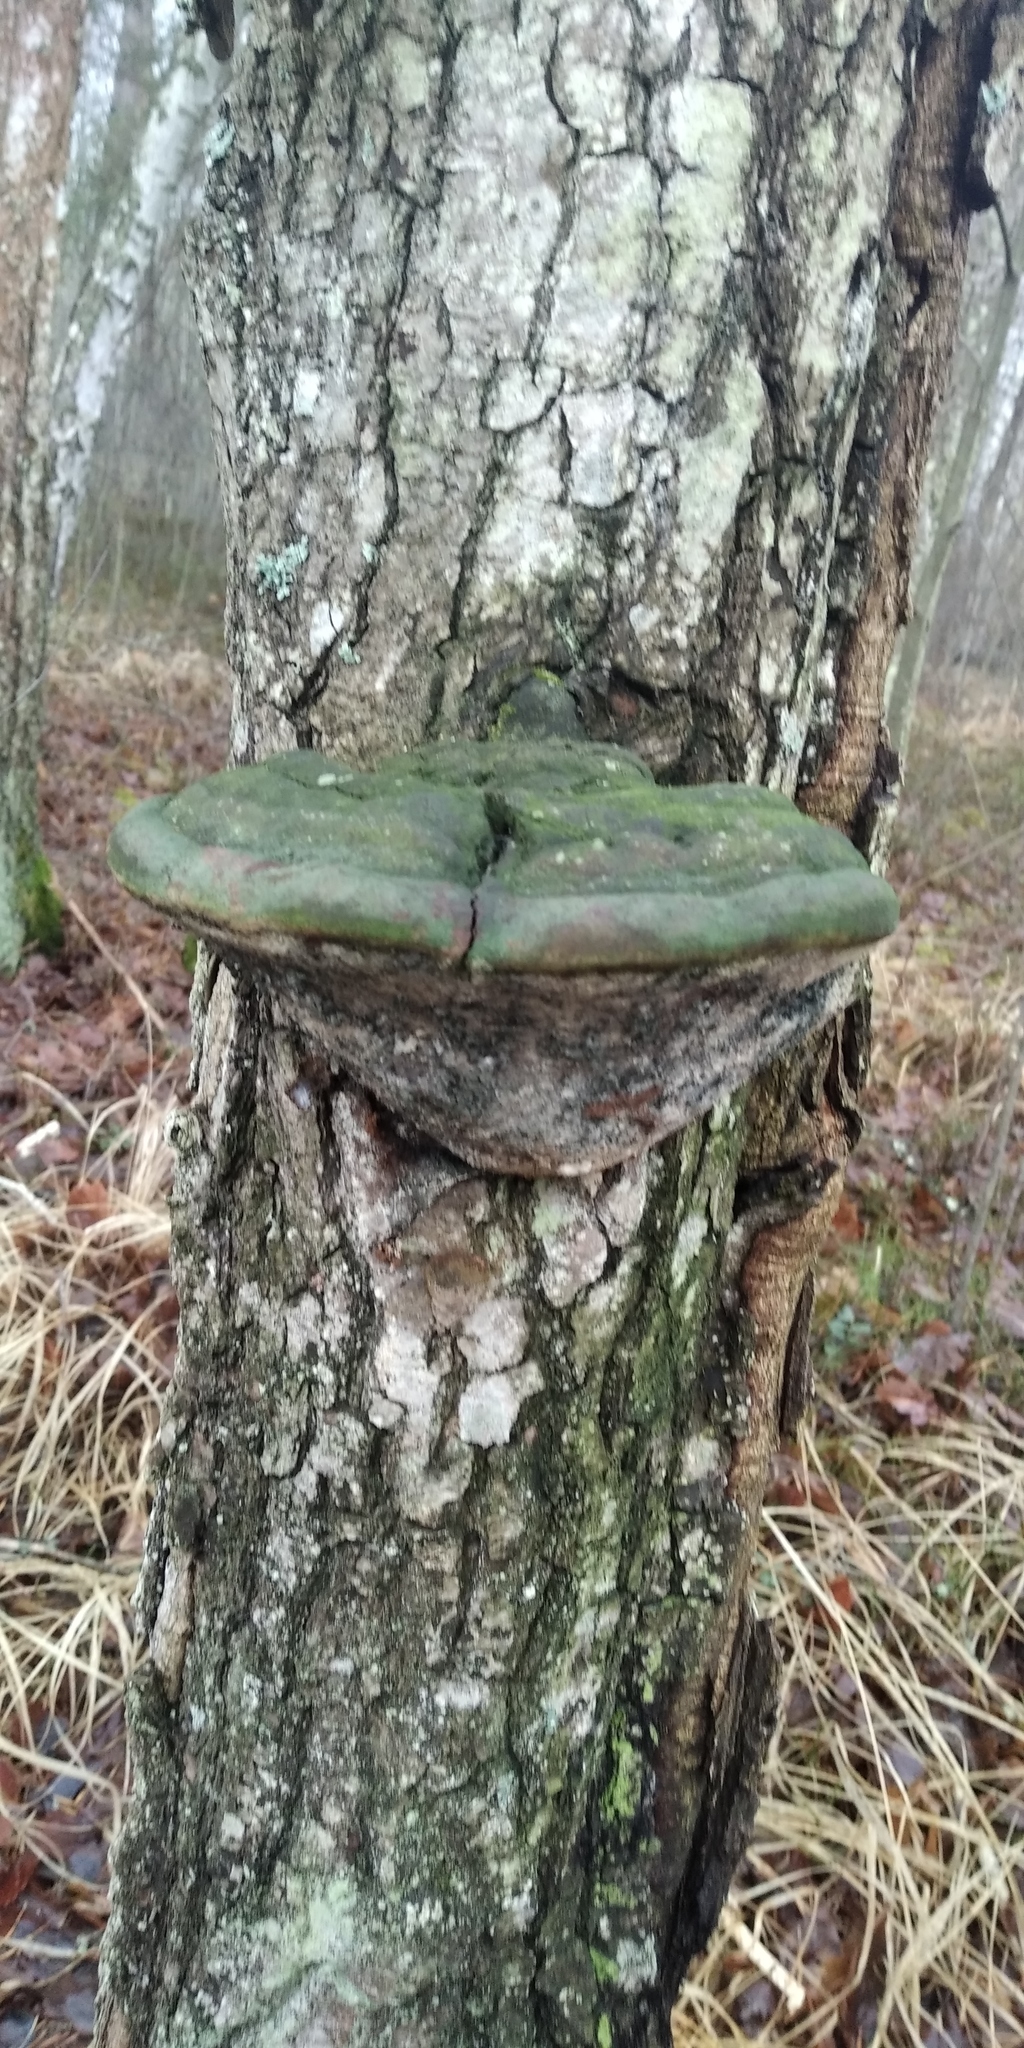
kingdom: Fungi
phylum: Basidiomycota
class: Agaricomycetes
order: Polyporales
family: Polyporaceae
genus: Fomes
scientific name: Fomes fomentarius
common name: Hoof fungus
